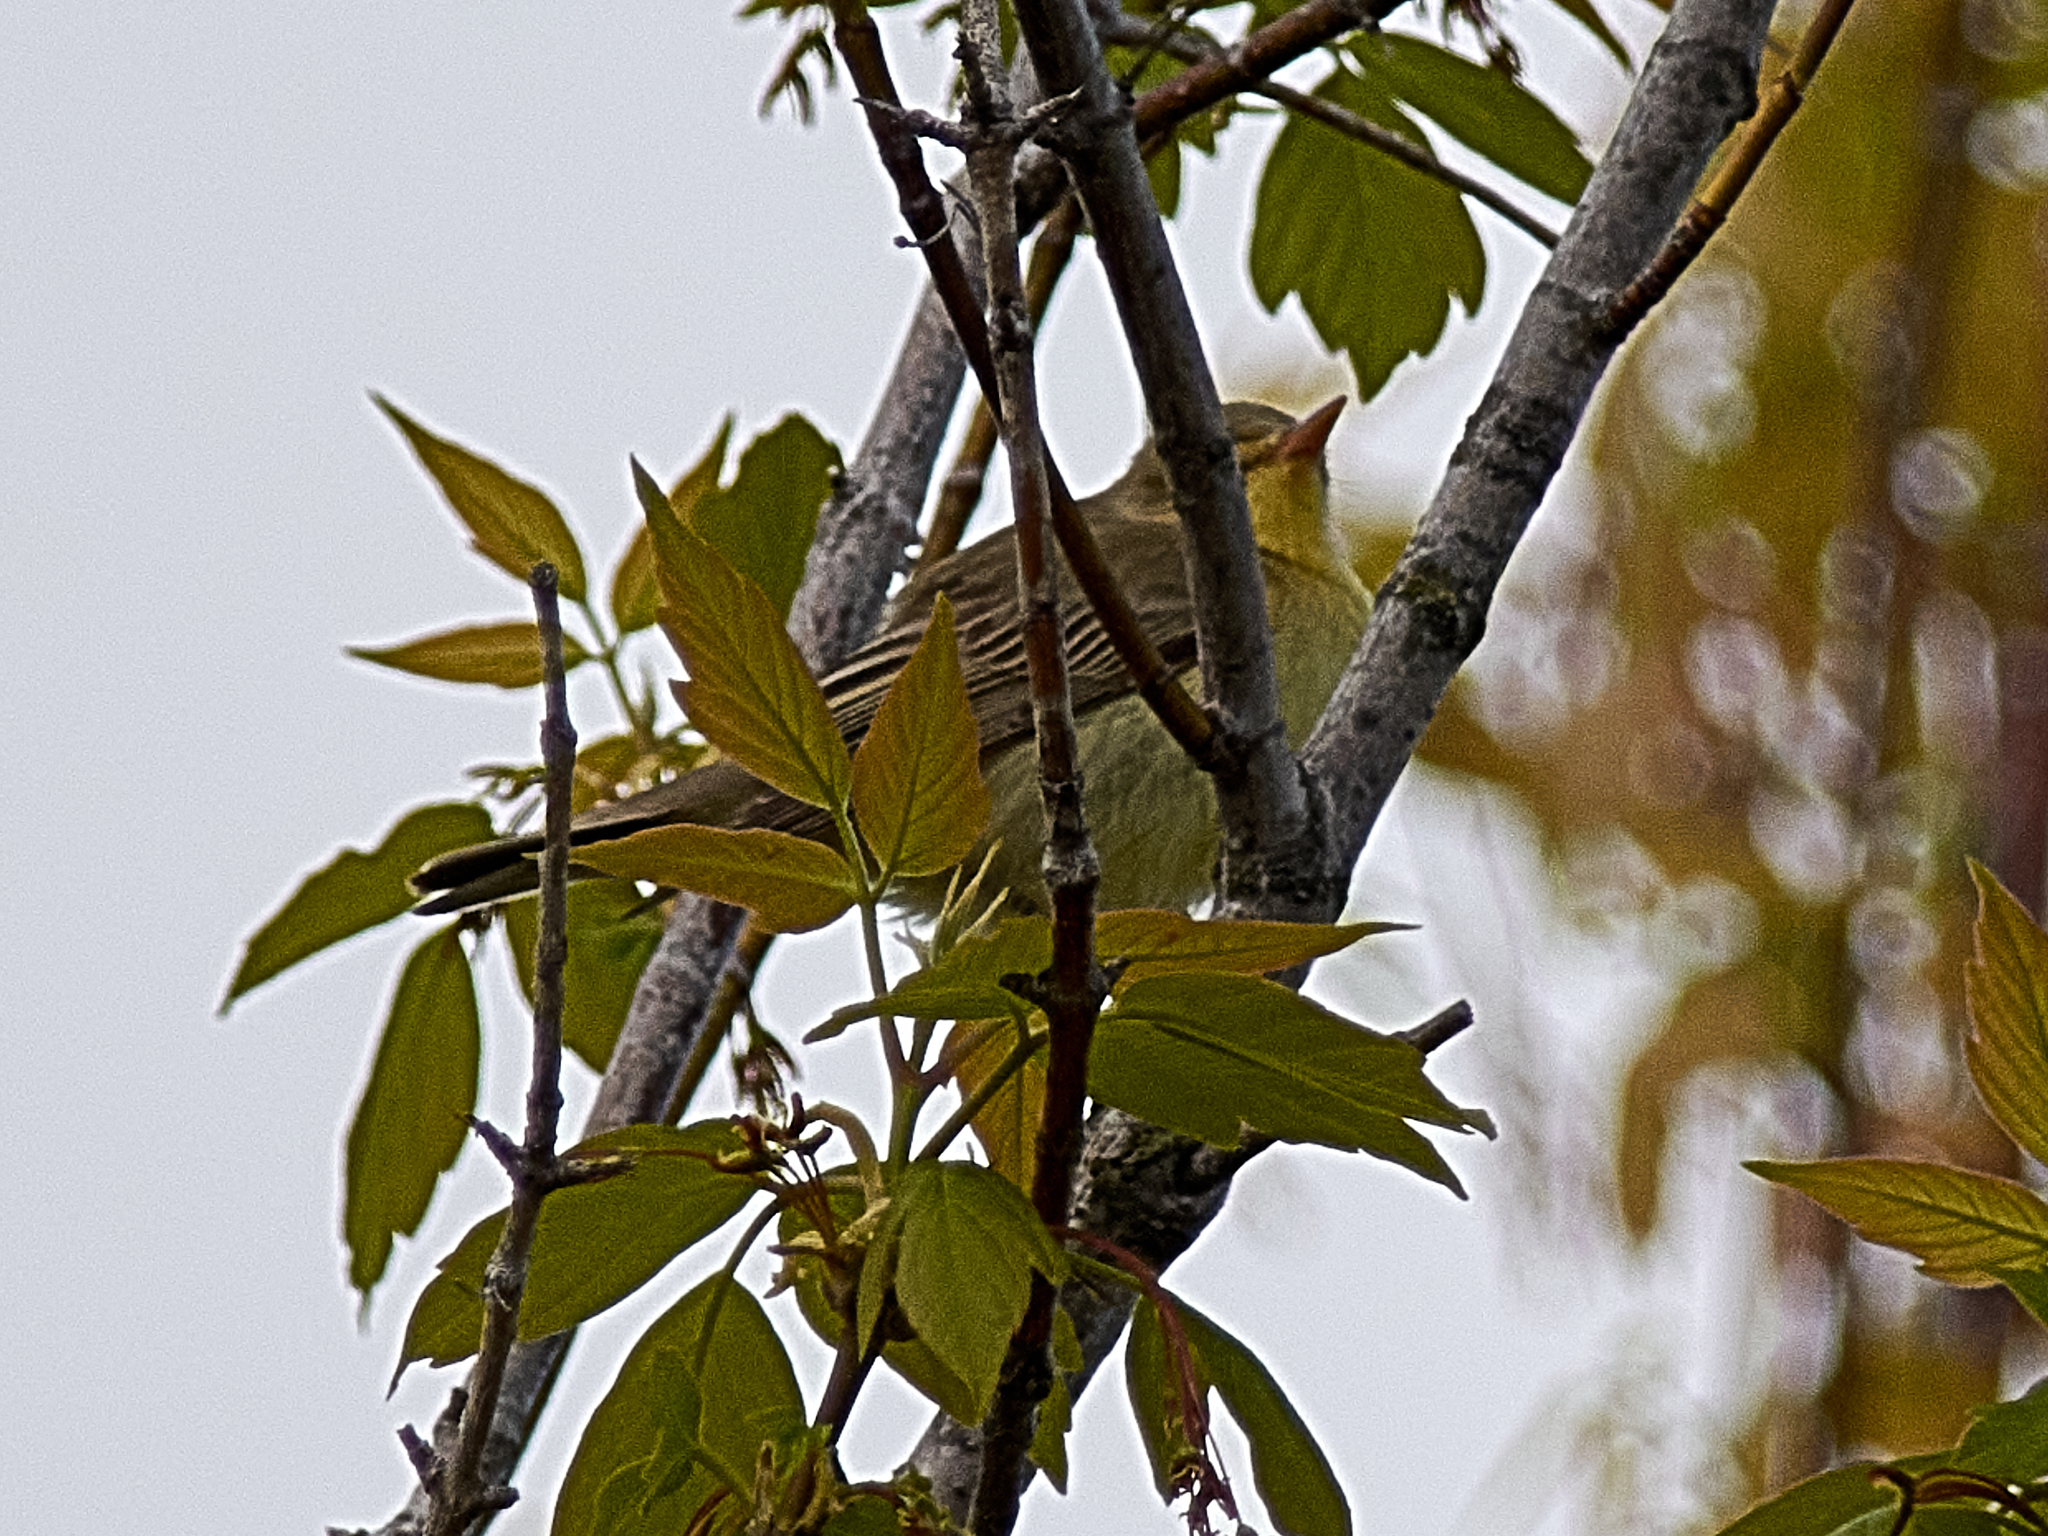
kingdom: Animalia
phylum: Chordata
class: Aves
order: Passeriformes
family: Acrocephalidae
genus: Hippolais
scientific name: Hippolais icterina
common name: Icterine warbler
